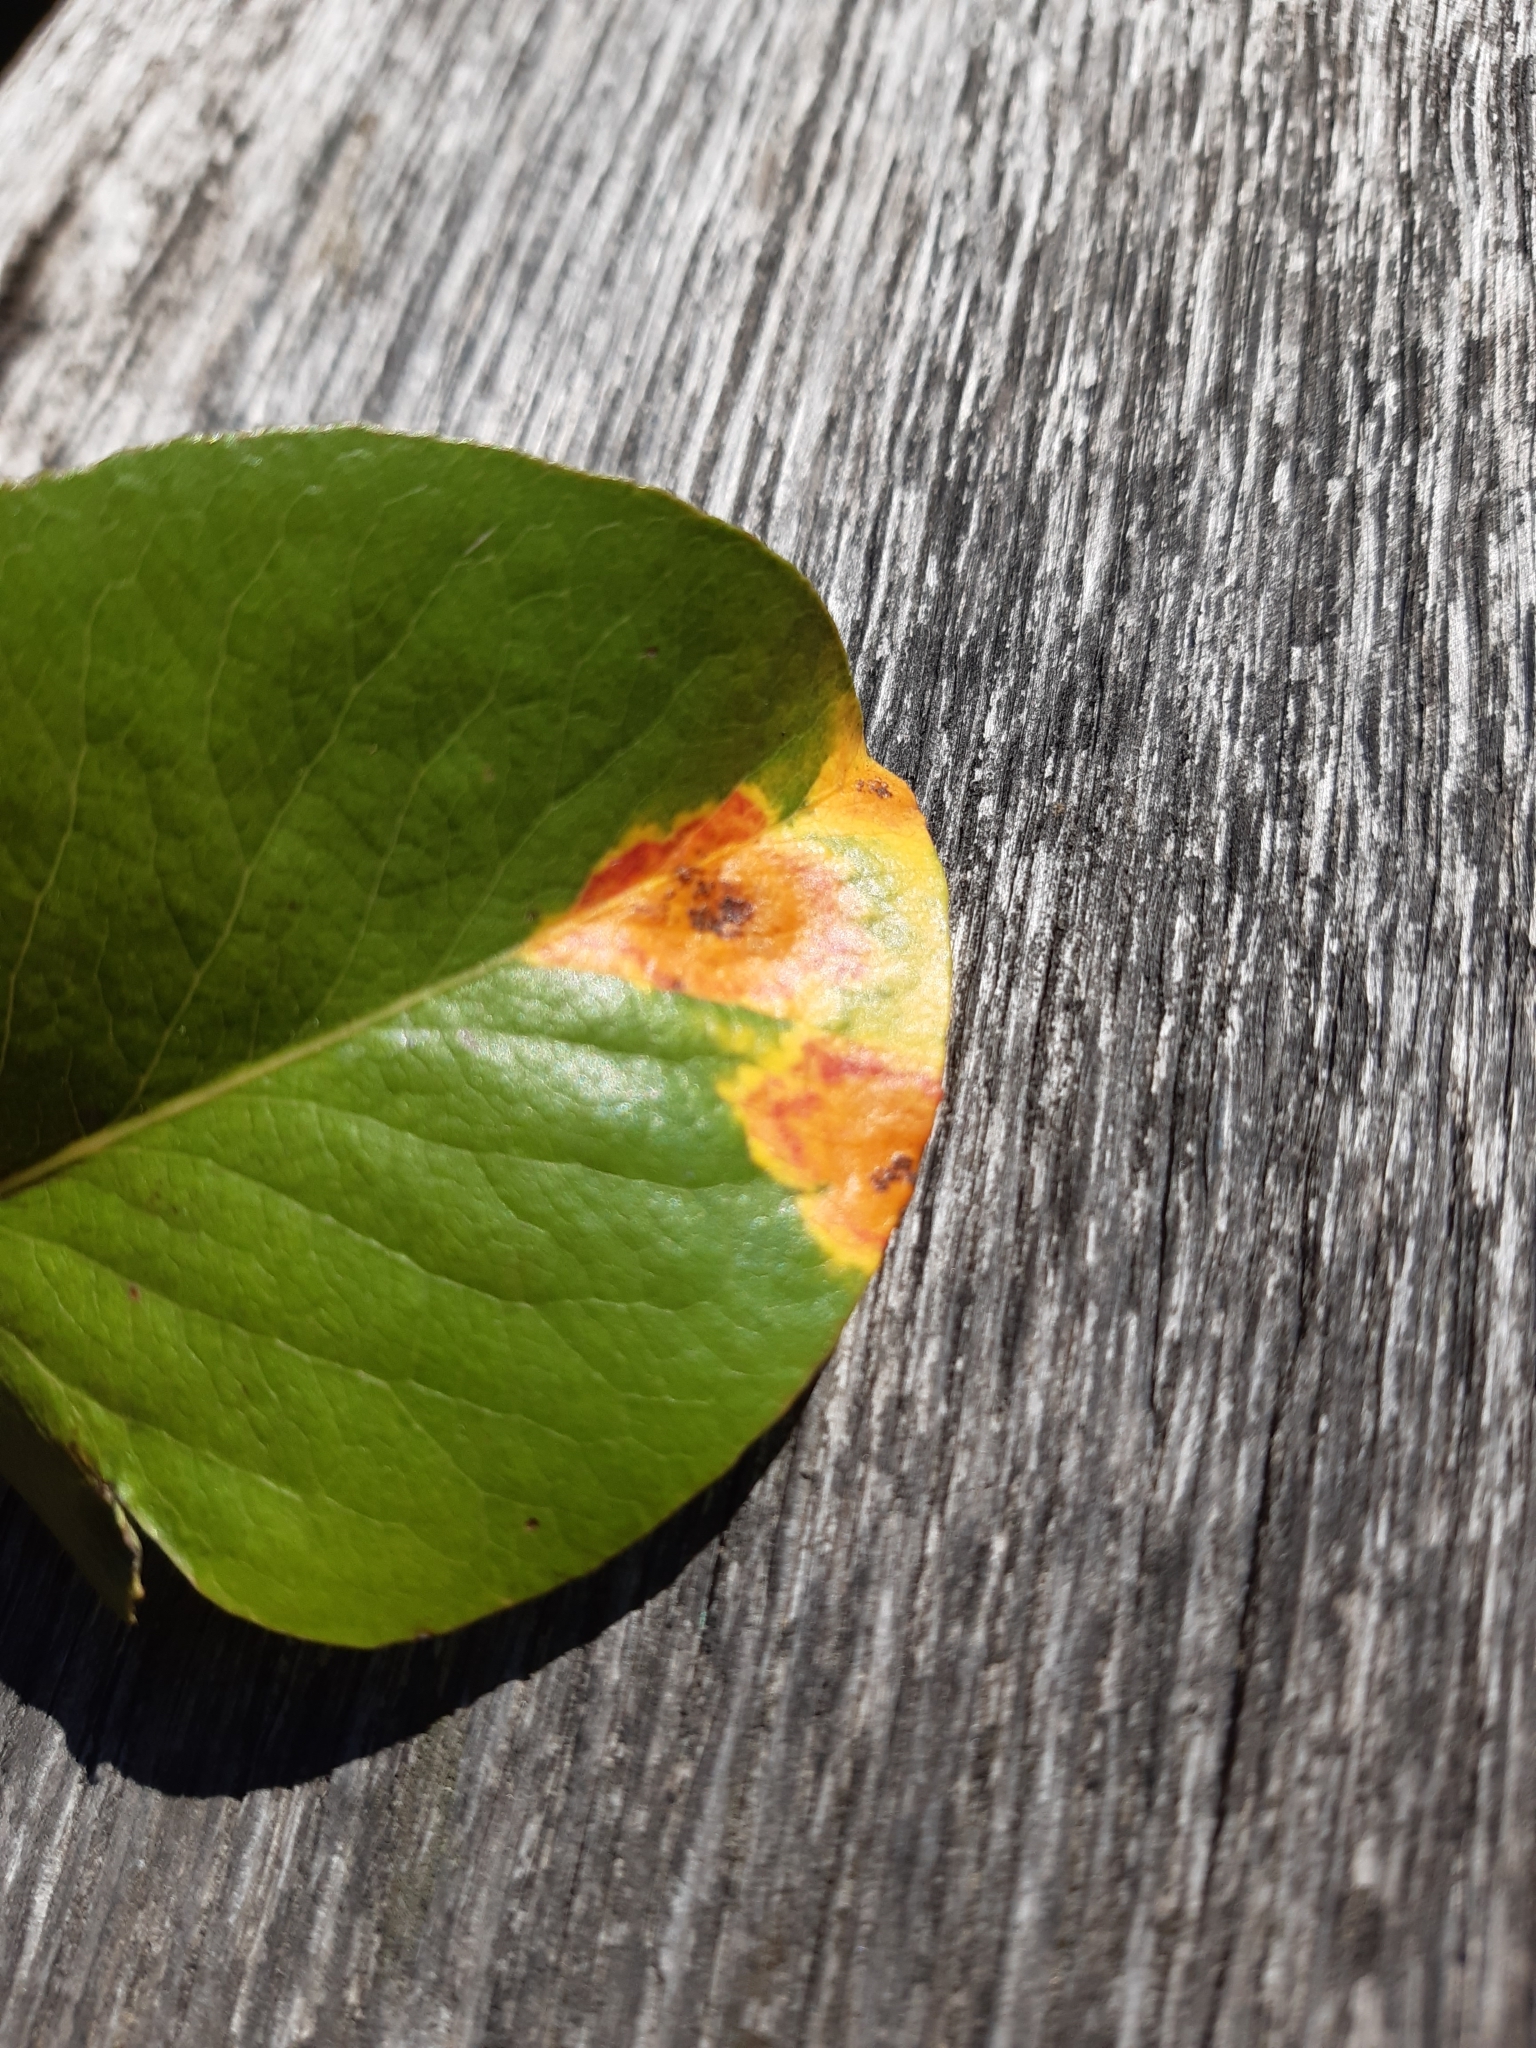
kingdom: Fungi
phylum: Basidiomycota
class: Pucciniomycetes
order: Pucciniales
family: Gymnosporangiaceae
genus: Gymnosporangium
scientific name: Gymnosporangium sabinae
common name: Pear trellis rust fungus
